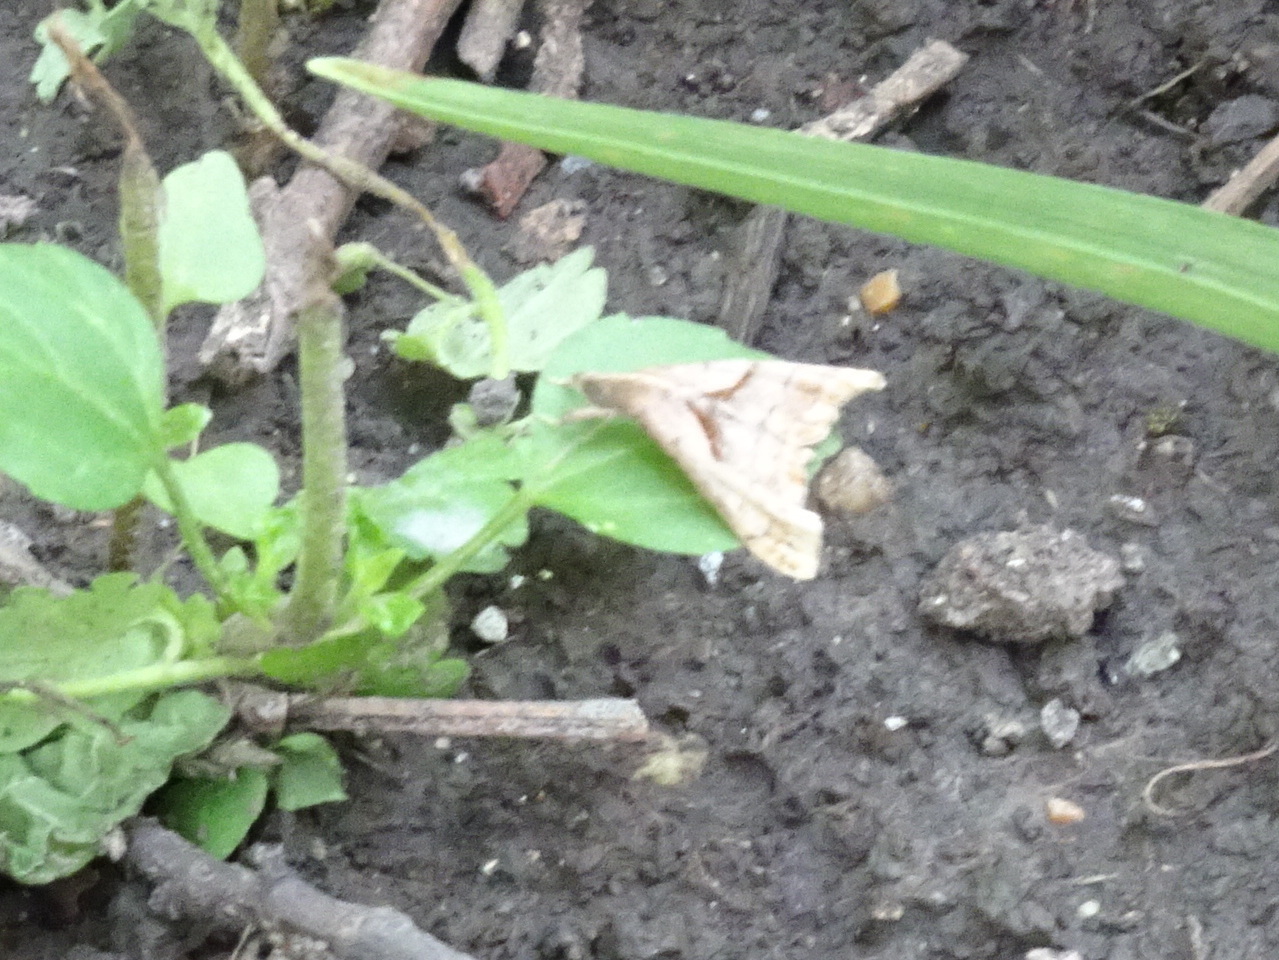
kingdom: Animalia
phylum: Arthropoda
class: Insecta
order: Lepidoptera
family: Erebidae
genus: Palthis
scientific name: Palthis angulalis
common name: Dark-spotted palthis moth
